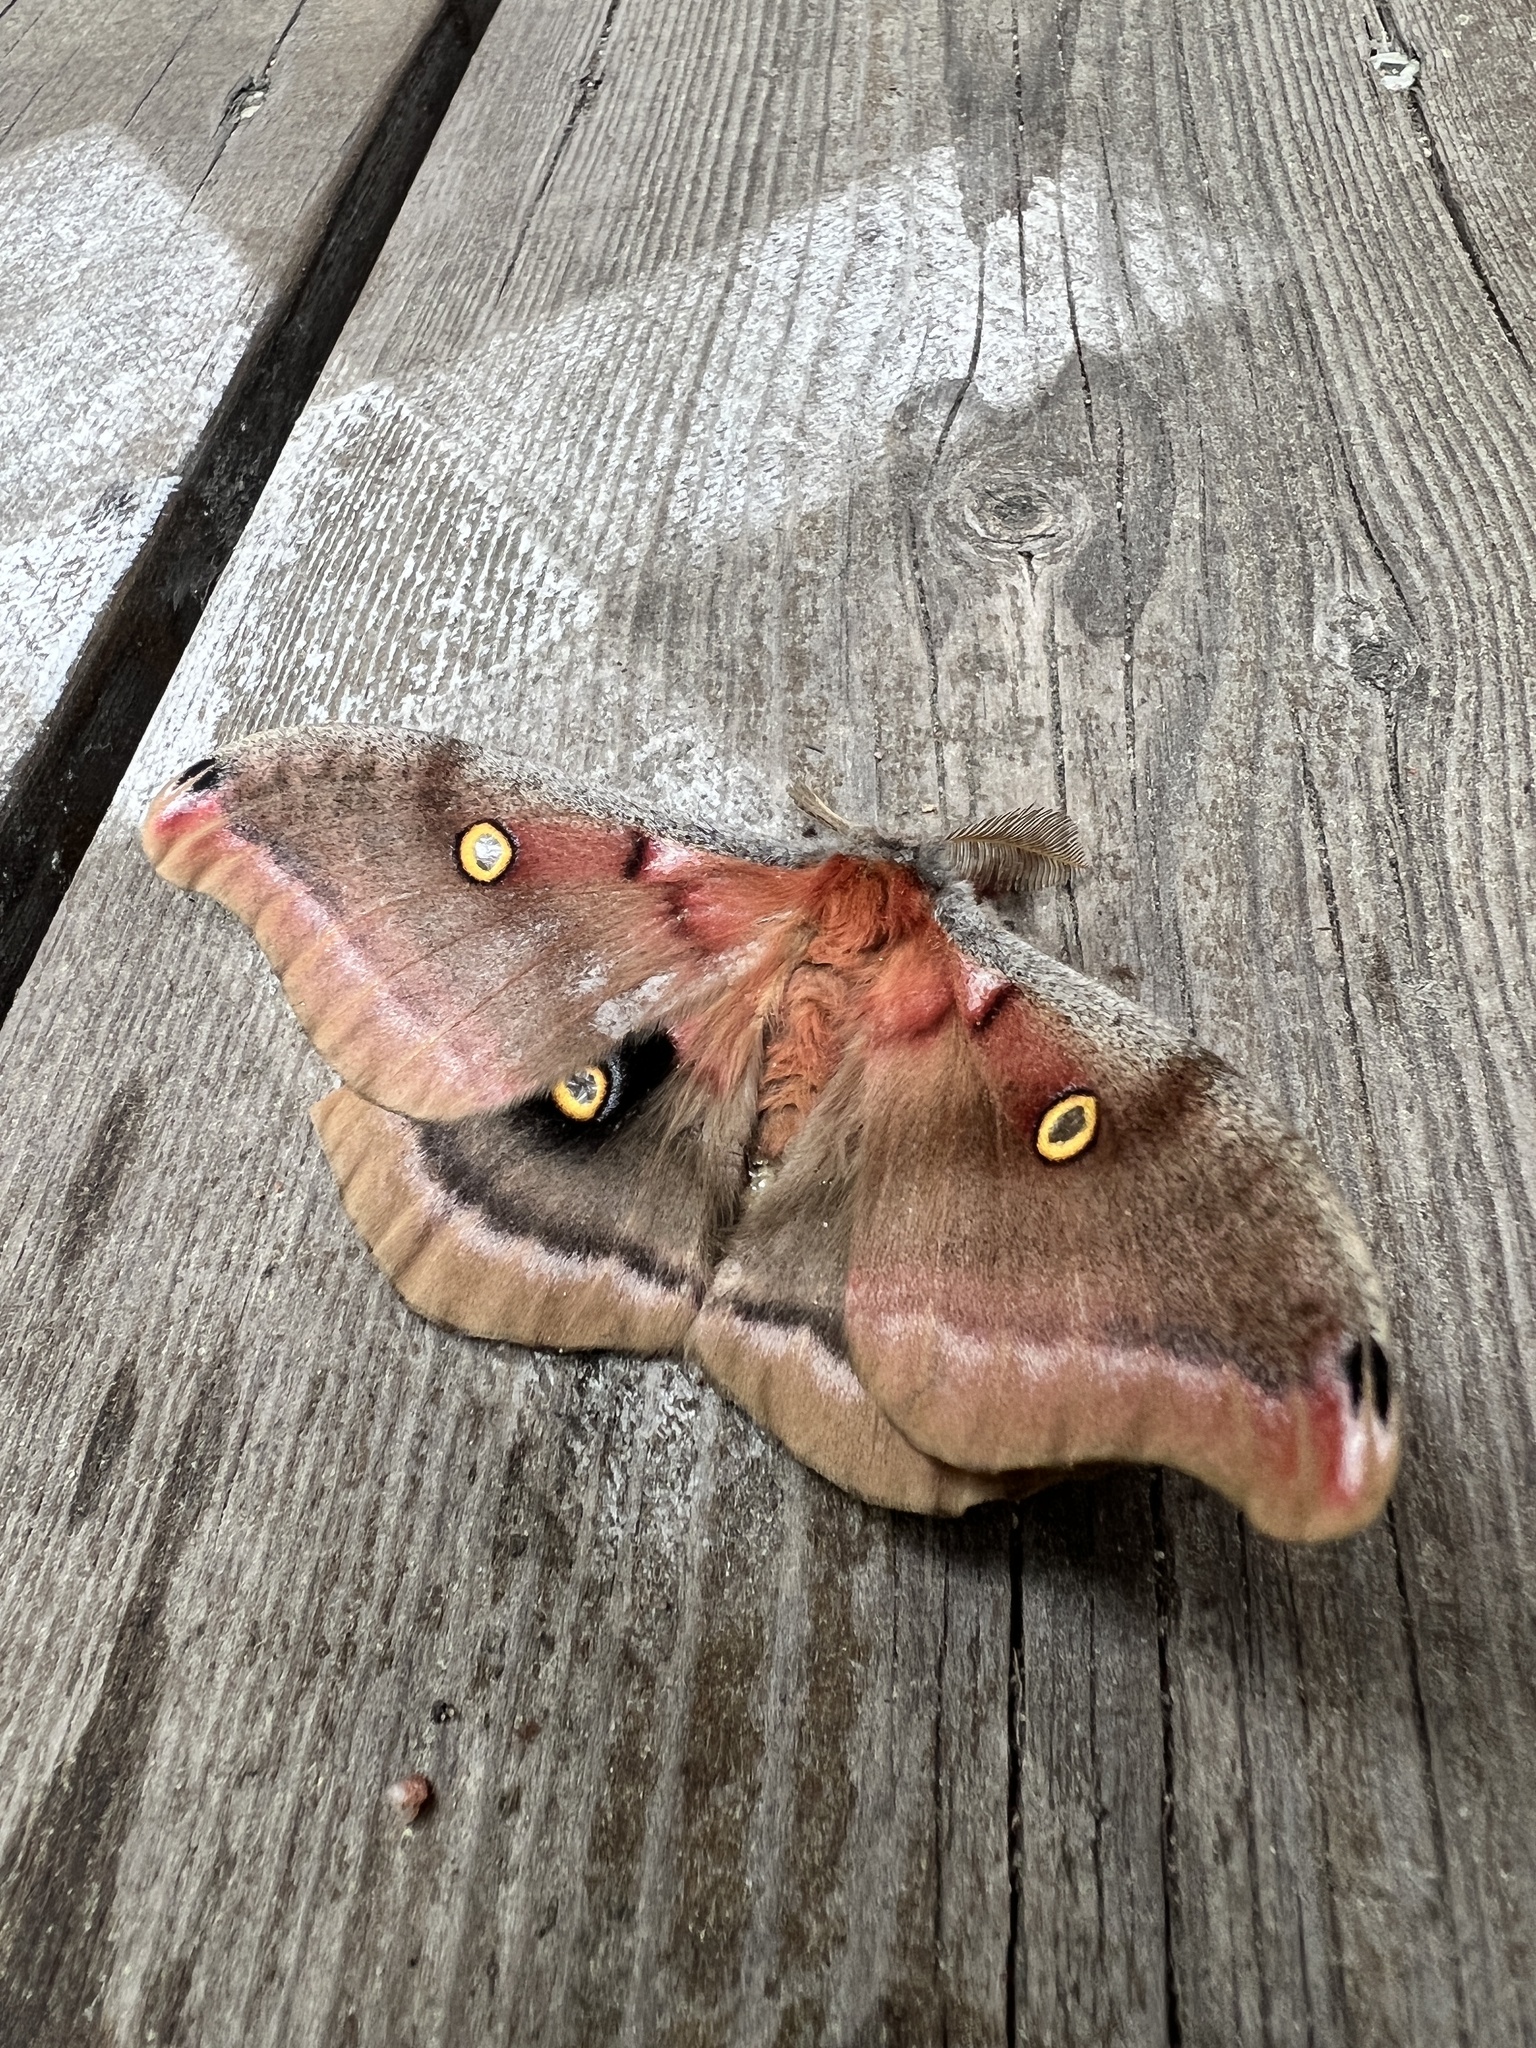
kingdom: Animalia
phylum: Arthropoda
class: Insecta
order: Lepidoptera
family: Saturniidae
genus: Antheraea
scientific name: Antheraea polyphemus
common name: Polyphemus moth
